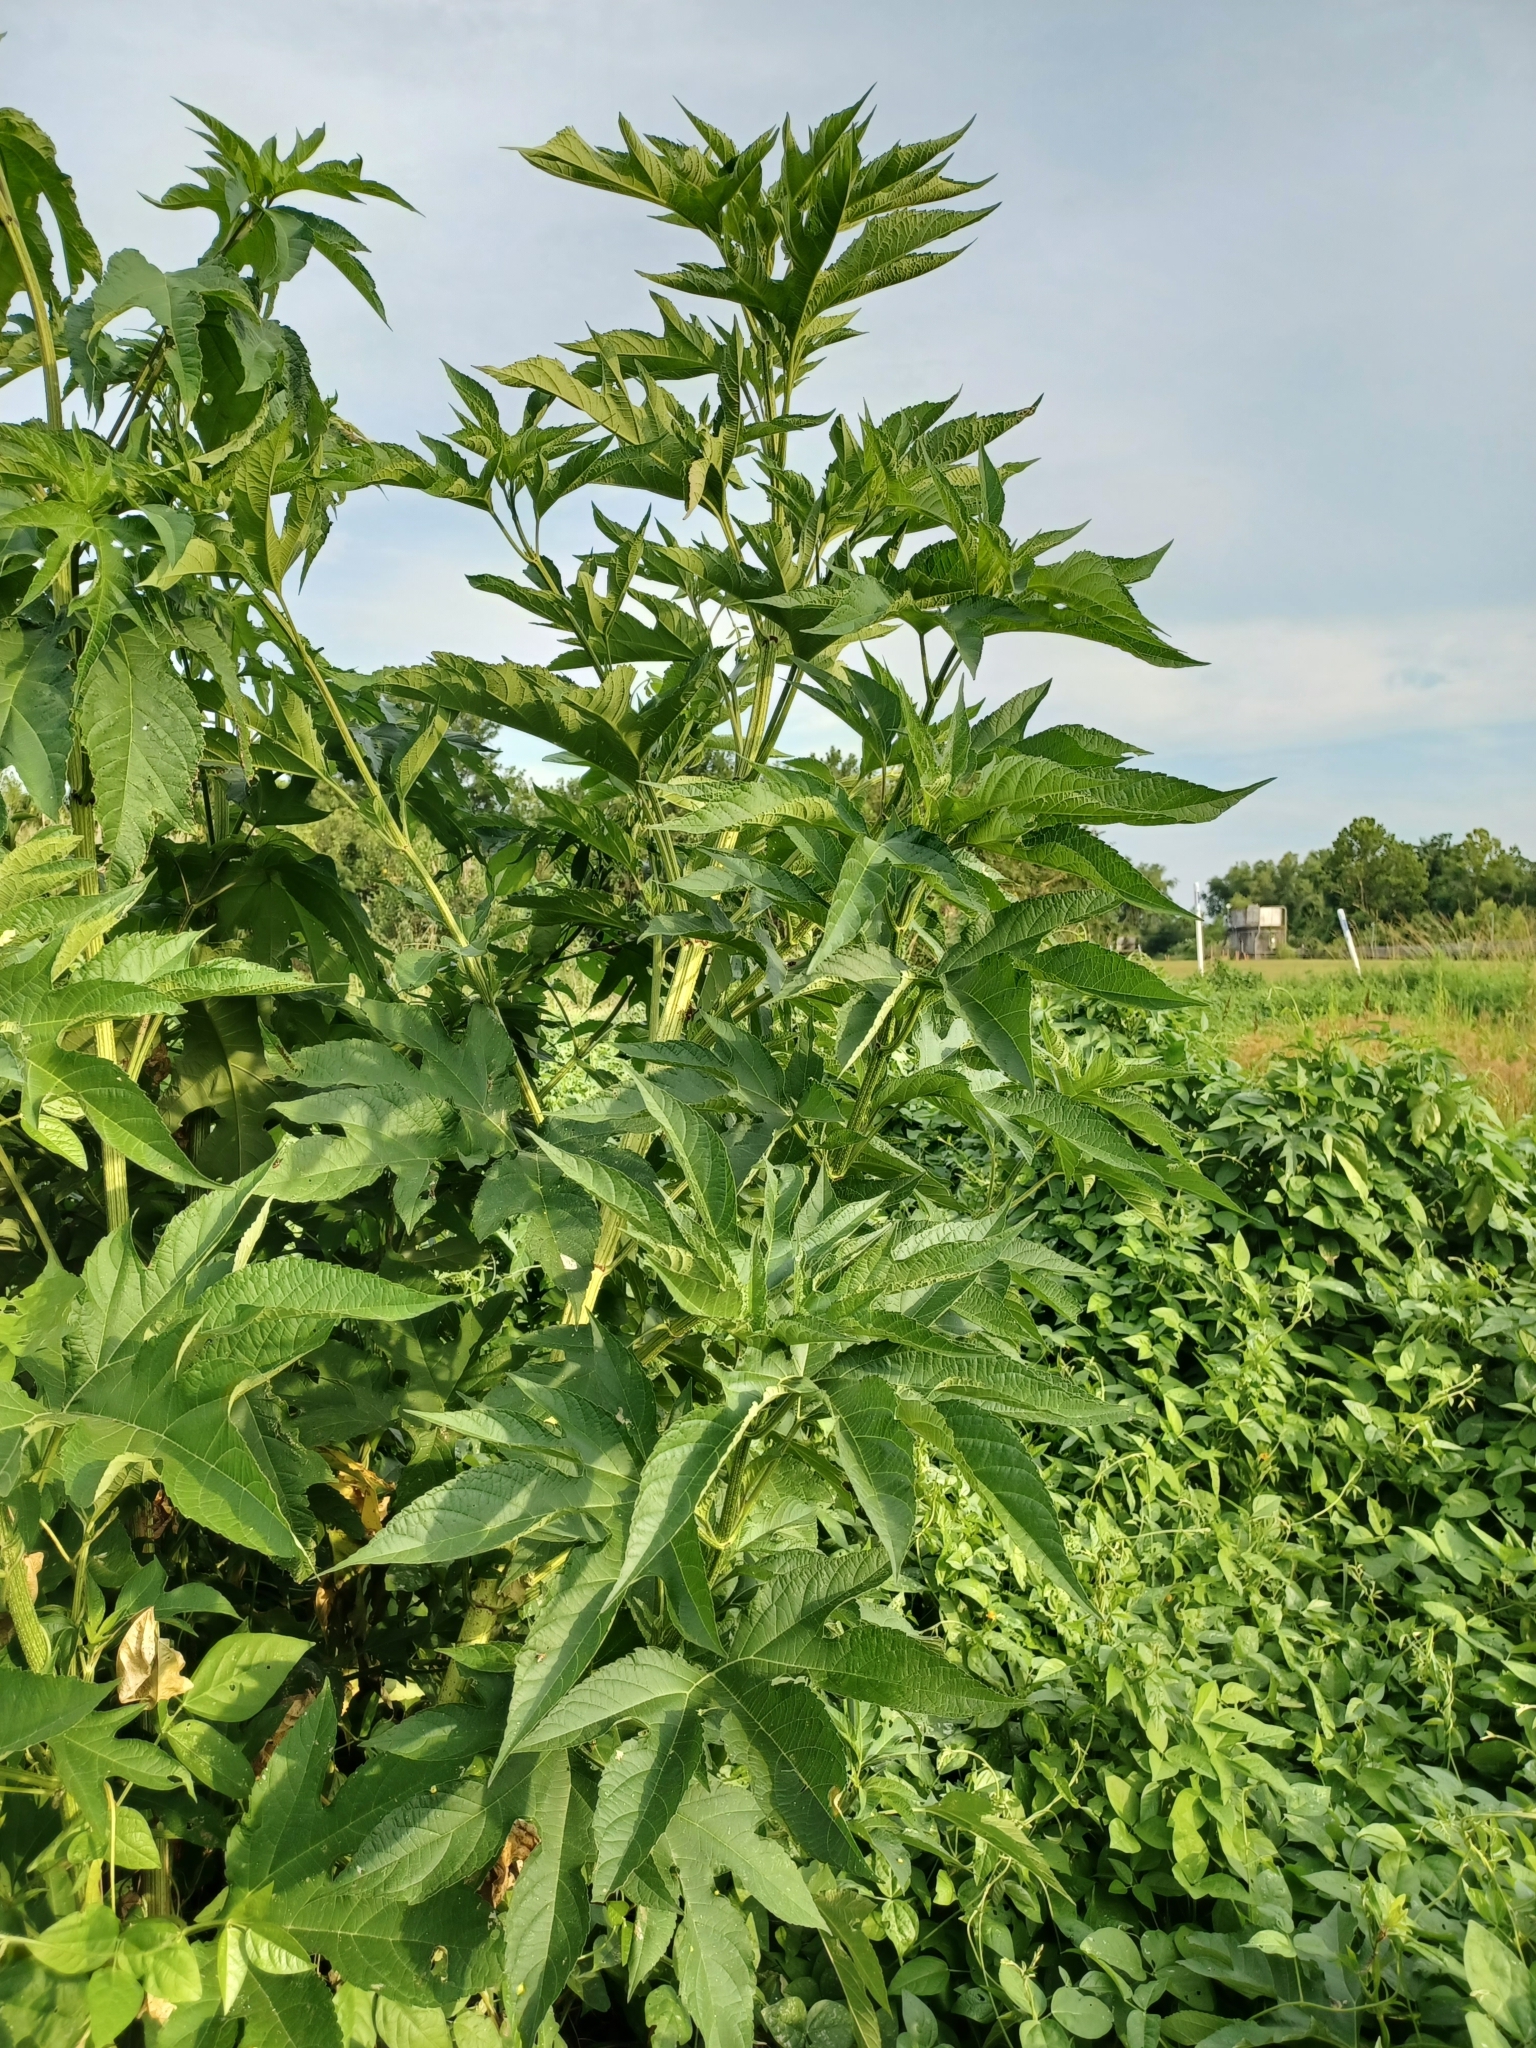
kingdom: Plantae
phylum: Tracheophyta
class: Magnoliopsida
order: Asterales
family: Asteraceae
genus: Ambrosia
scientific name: Ambrosia trifida
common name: Giant ragweed
